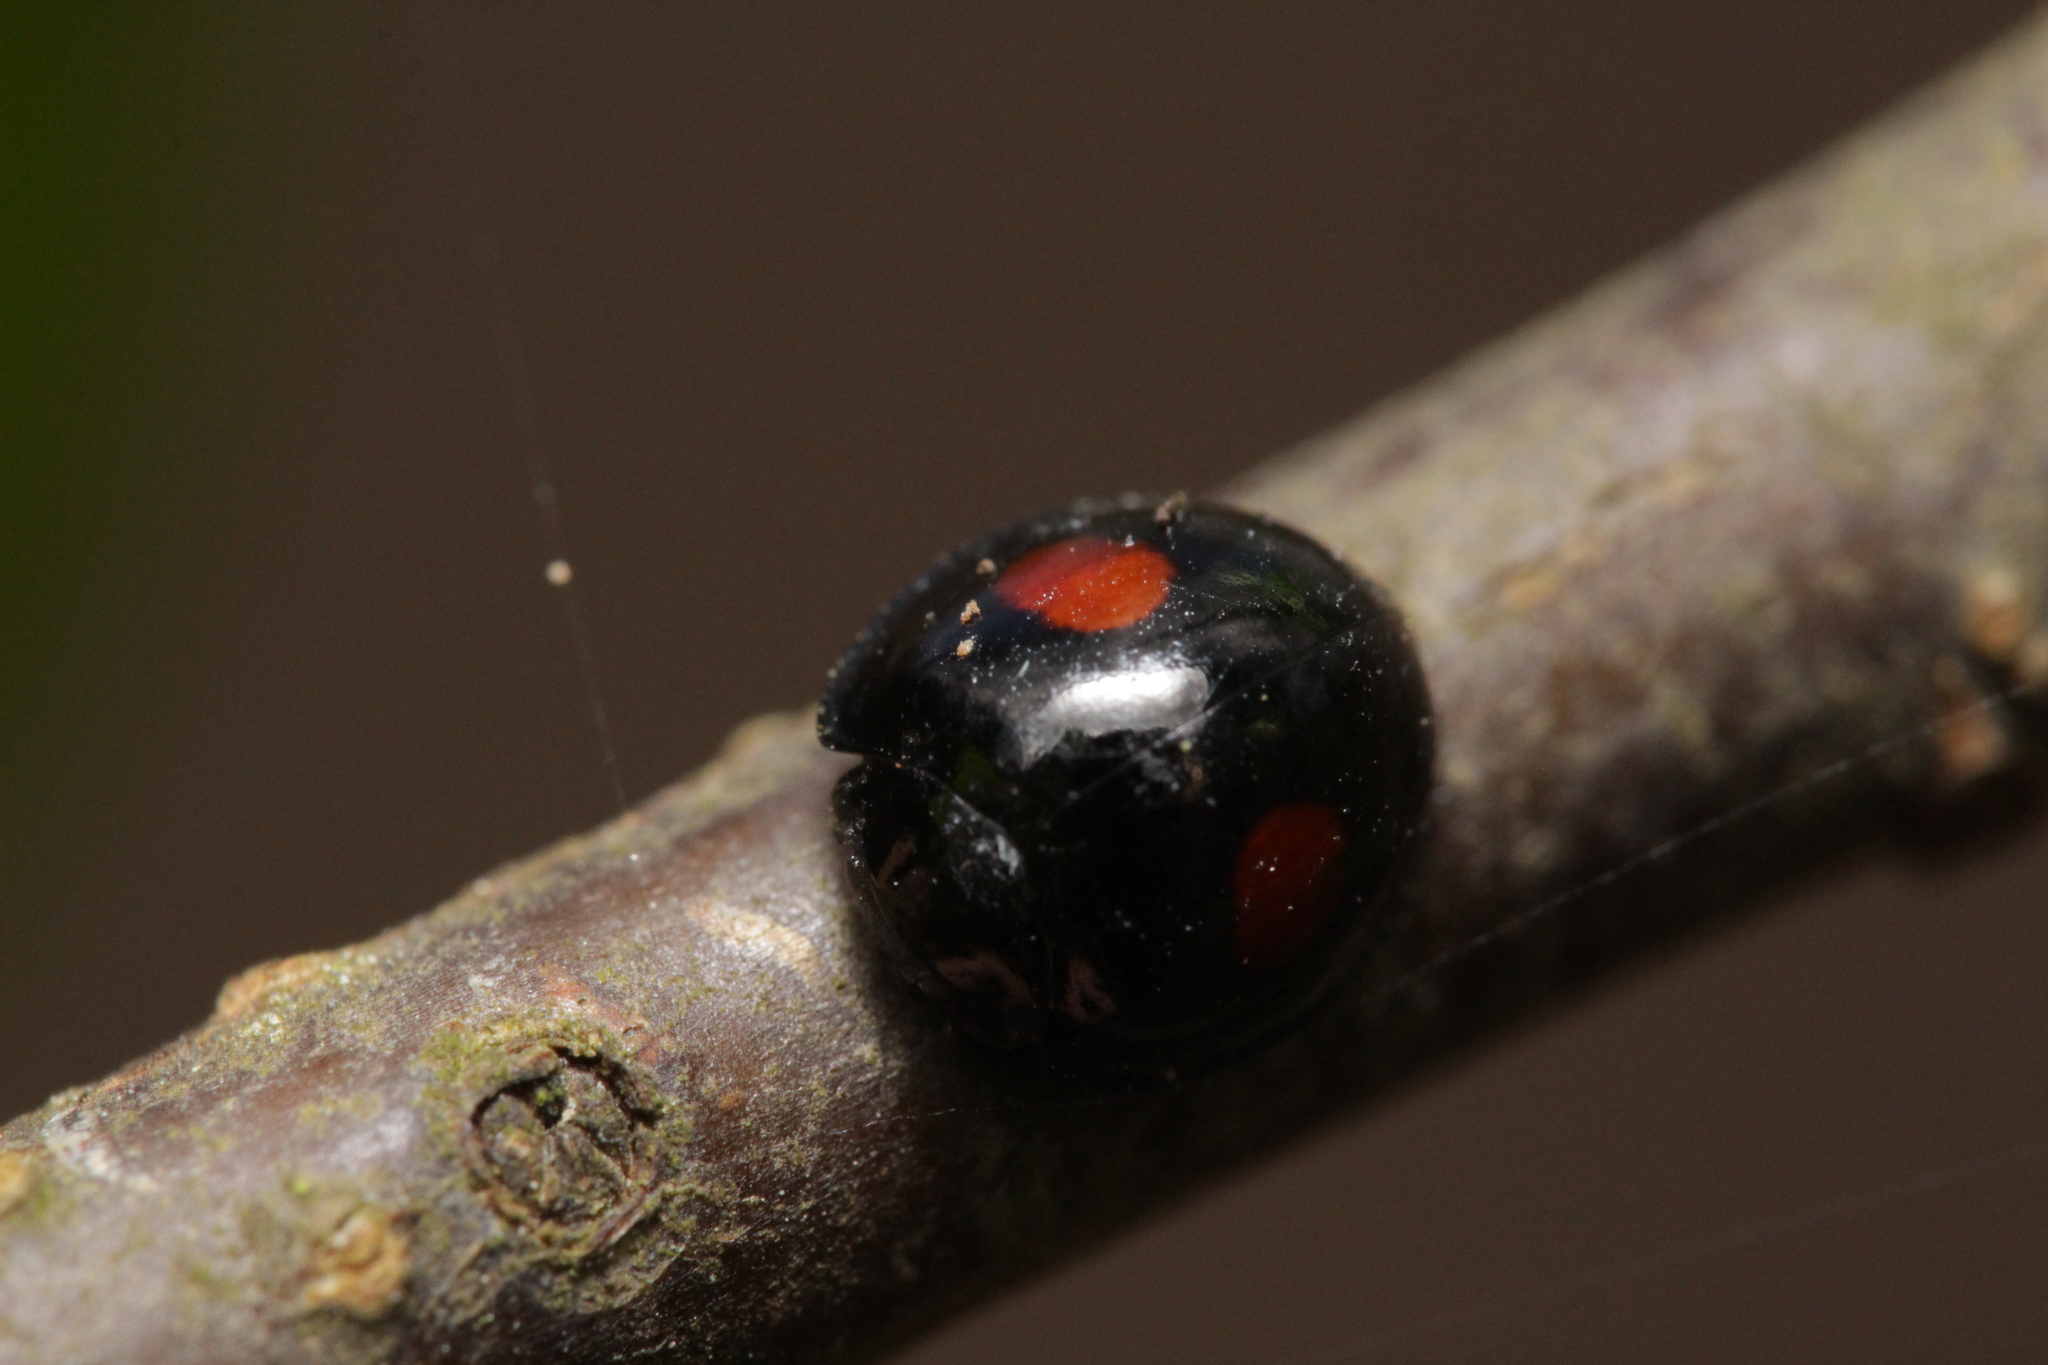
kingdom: Animalia
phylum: Arthropoda
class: Insecta
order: Coleoptera
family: Coccinellidae
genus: Chilocorus
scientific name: Chilocorus renipustulatus
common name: Kidney-spot ladybird
